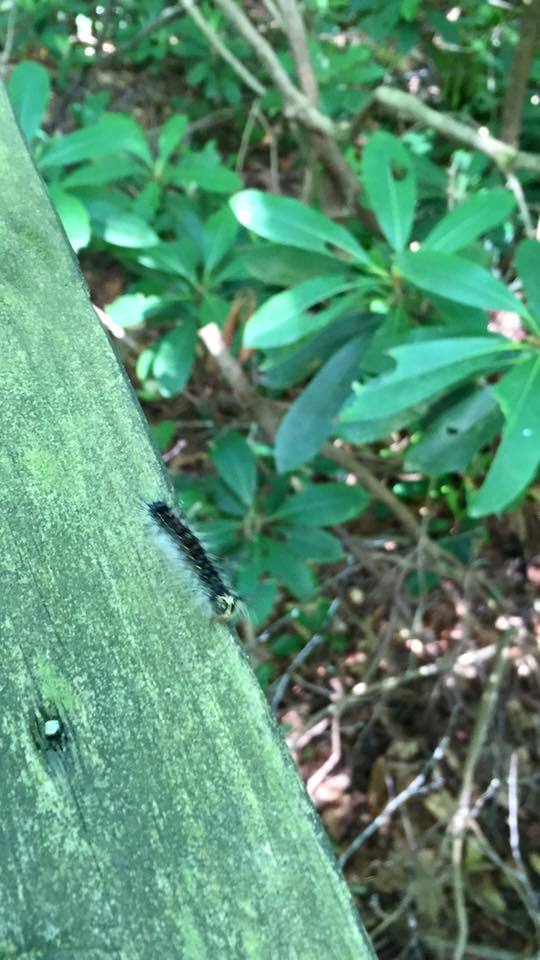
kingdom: Animalia
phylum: Arthropoda
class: Insecta
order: Lepidoptera
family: Erebidae
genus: Lymantria
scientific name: Lymantria dispar
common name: Gypsy moth
